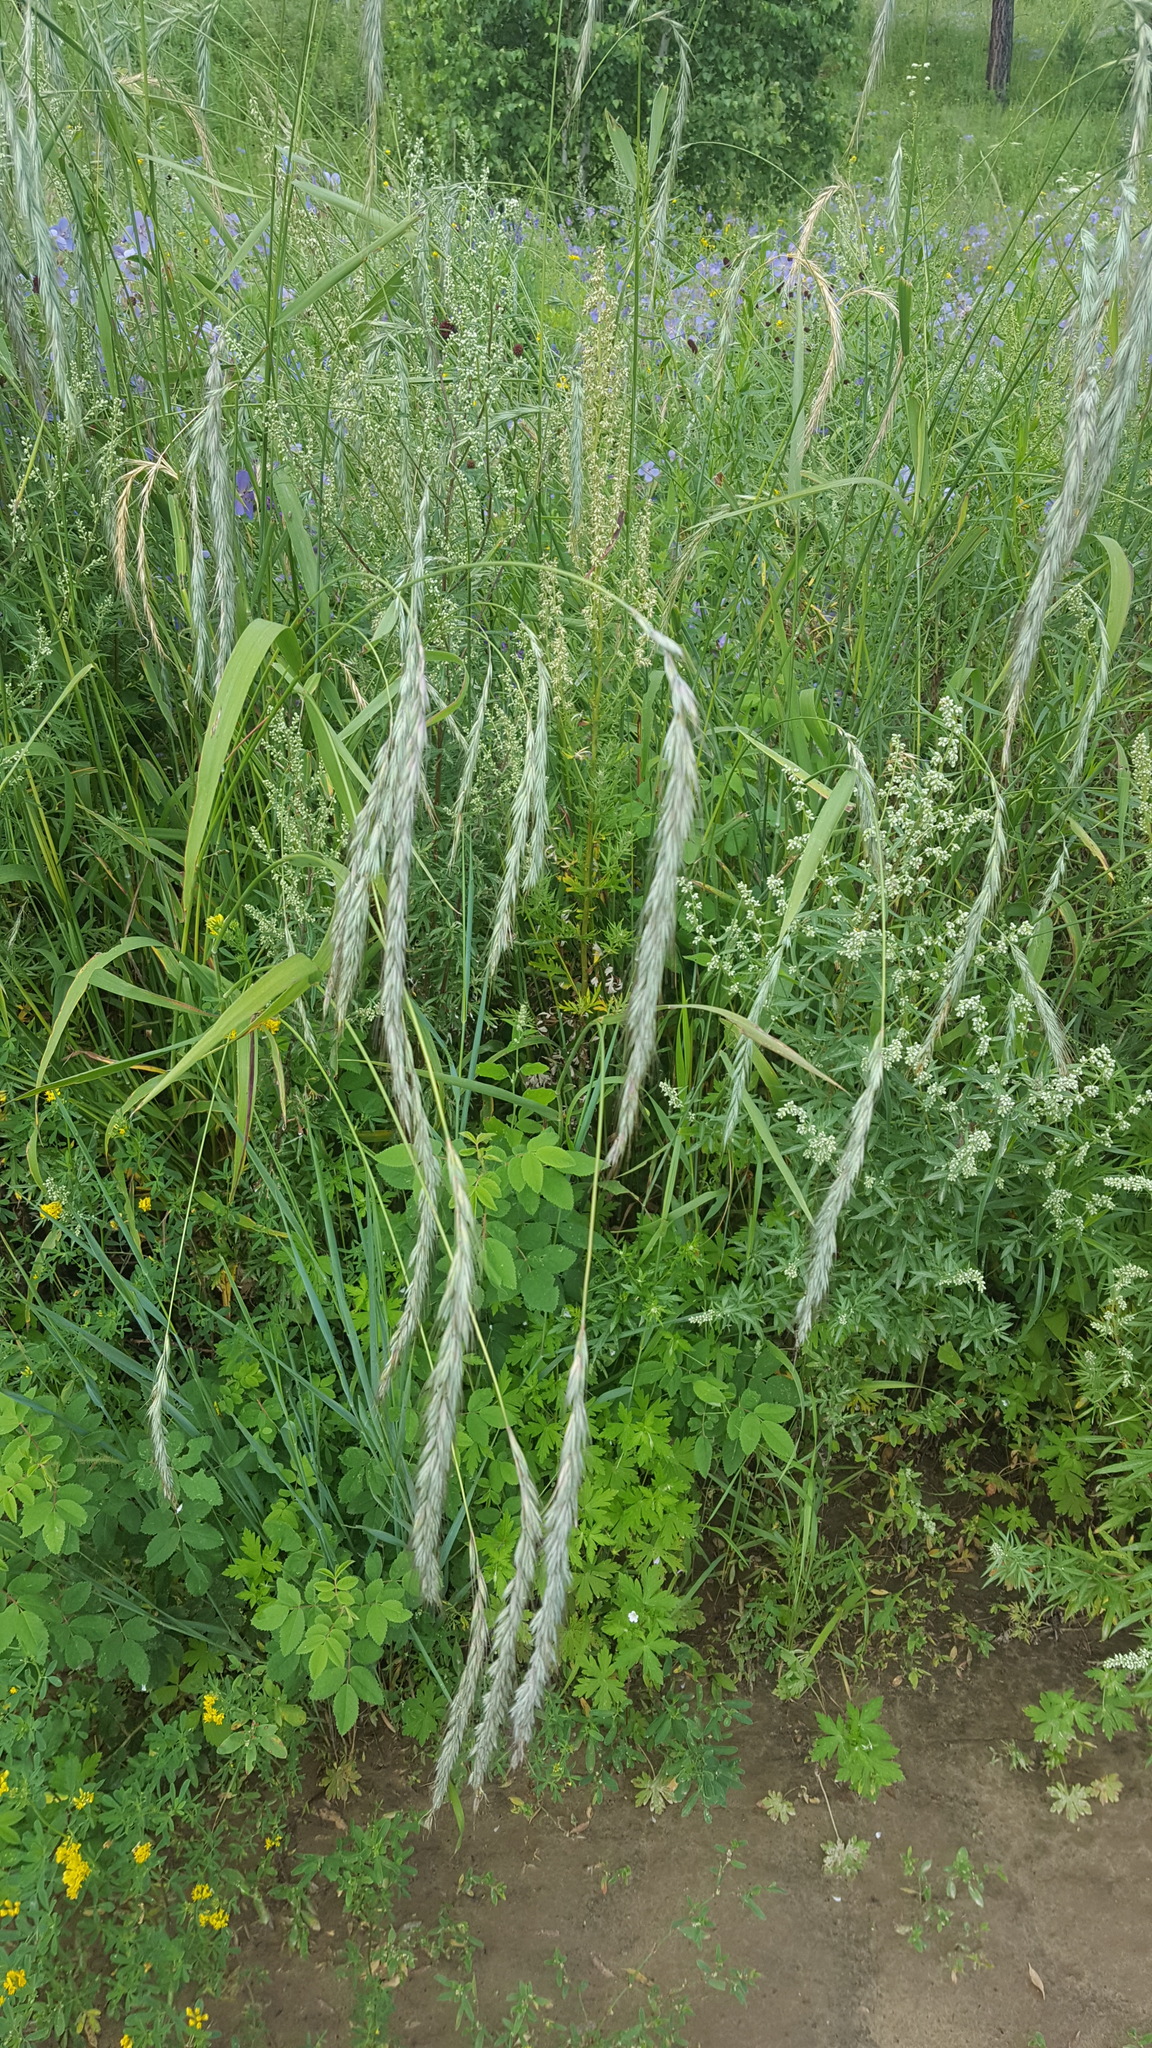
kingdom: Plantae
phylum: Tracheophyta
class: Liliopsida
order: Poales
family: Poaceae
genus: Elymus
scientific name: Elymus sibiricus
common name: Siberian wildrye
